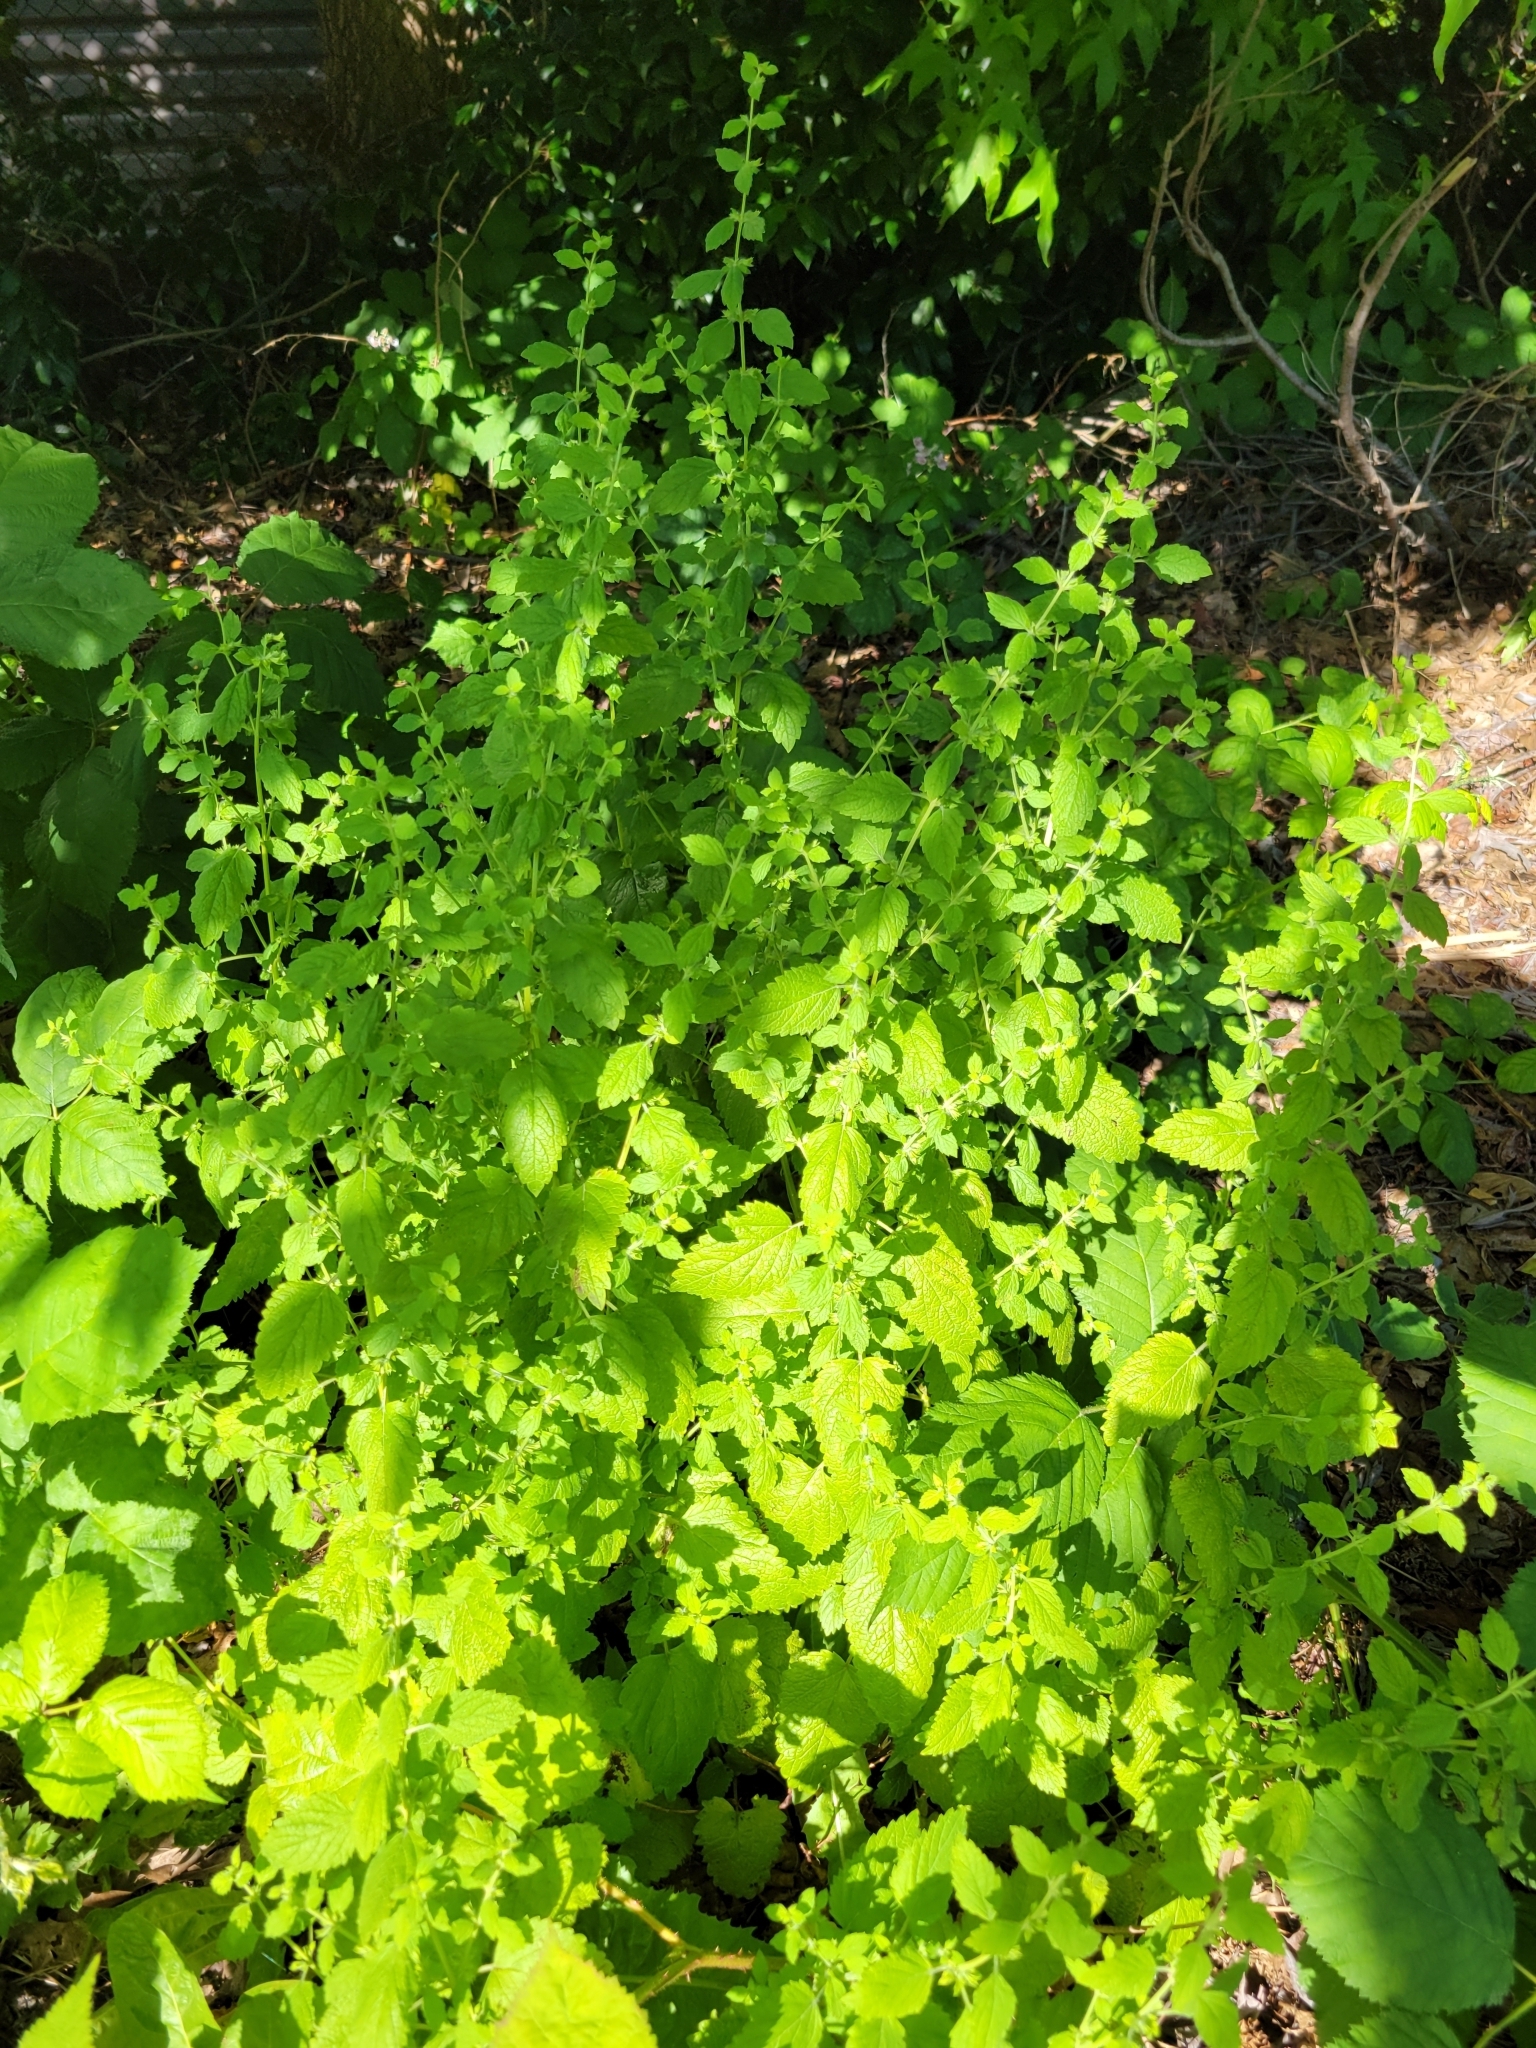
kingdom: Plantae
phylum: Tracheophyta
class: Magnoliopsida
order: Lamiales
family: Lamiaceae
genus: Melissa
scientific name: Melissa officinalis
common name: Balm
